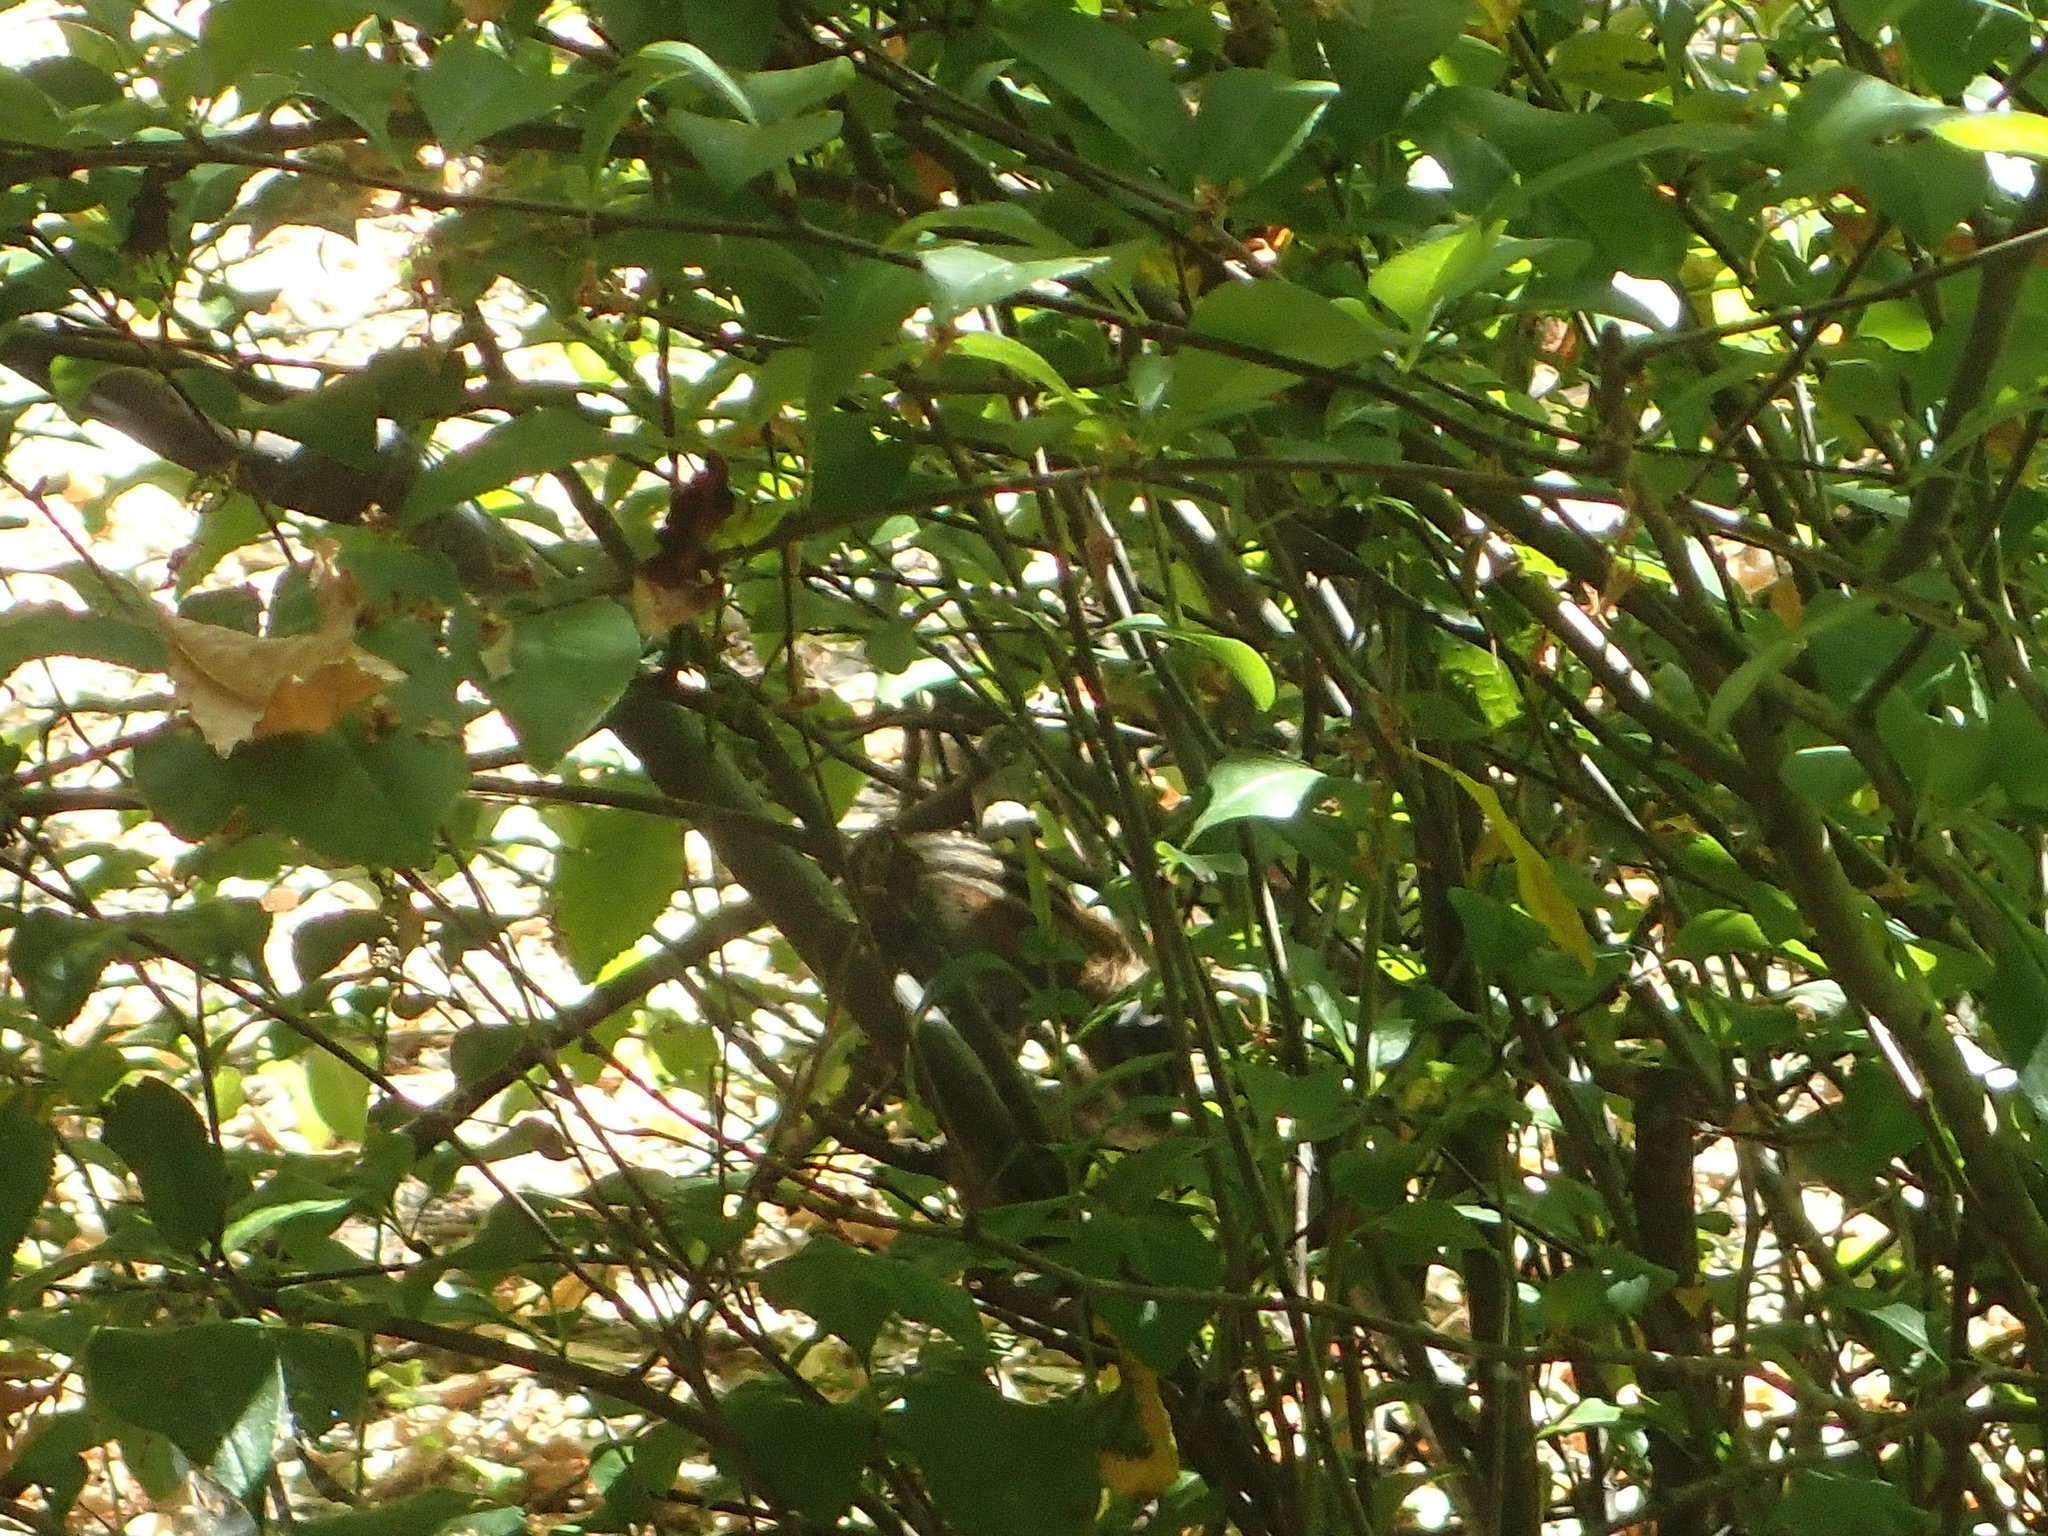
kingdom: Animalia
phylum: Chordata
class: Mammalia
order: Rodentia
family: Sciuridae
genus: Tamias
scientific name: Tamias sonomae
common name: Sonoma chipmunk
